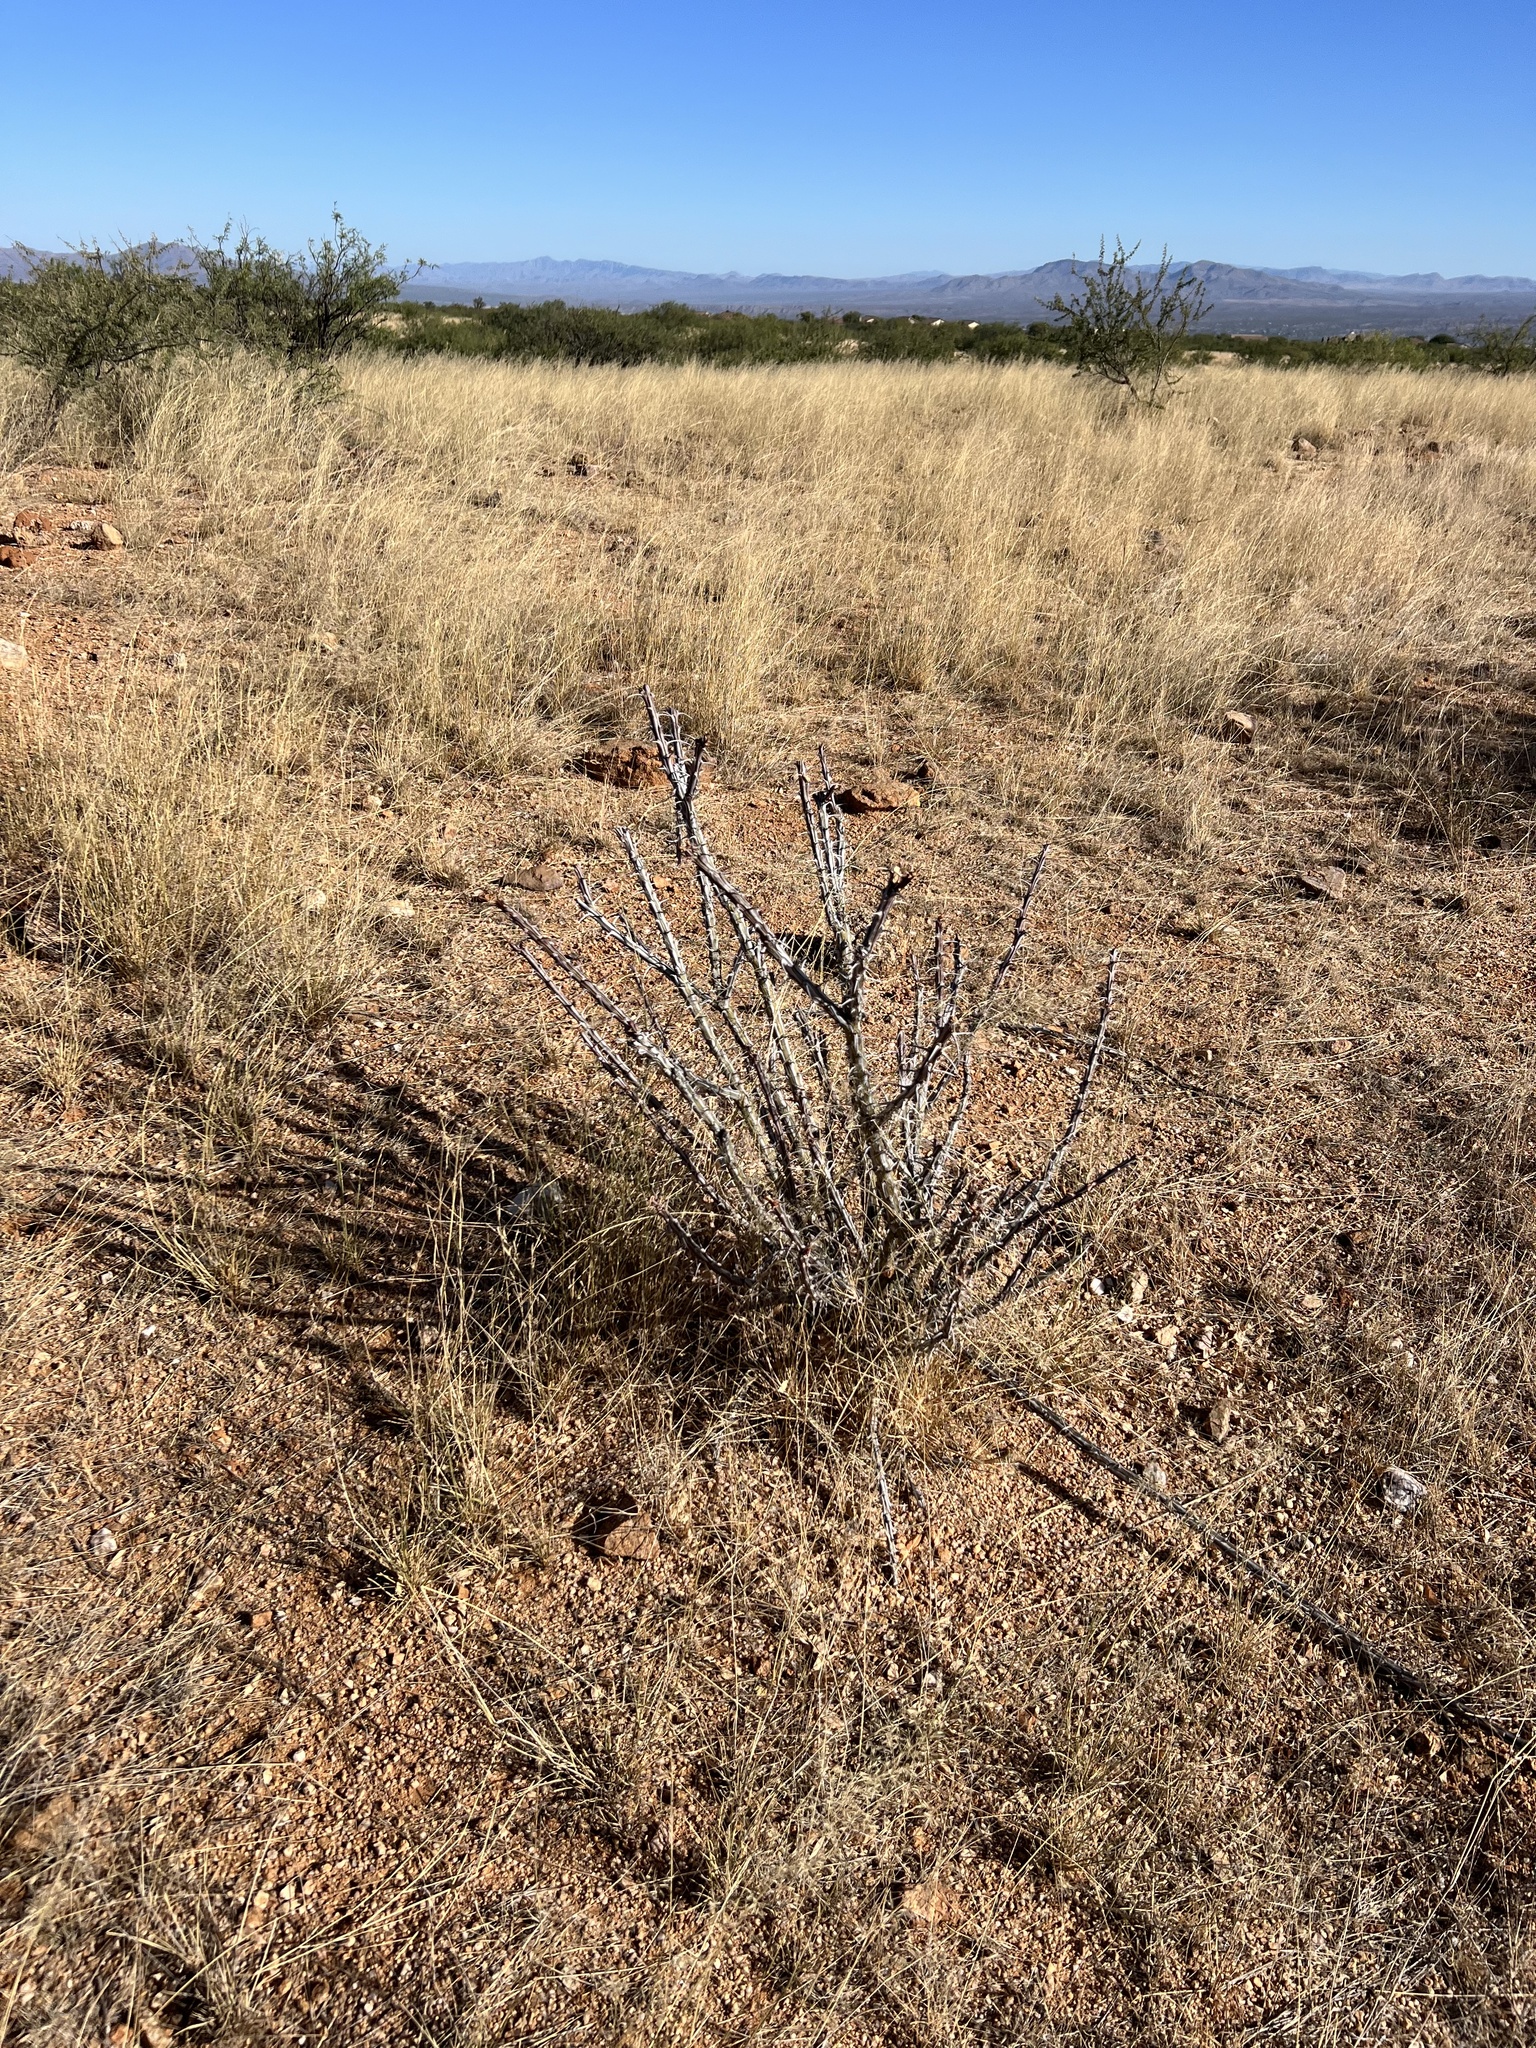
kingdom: Plantae
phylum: Tracheophyta
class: Magnoliopsida
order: Ericales
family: Fouquieriaceae
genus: Fouquieria
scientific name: Fouquieria splendens
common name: Vine-cactus
